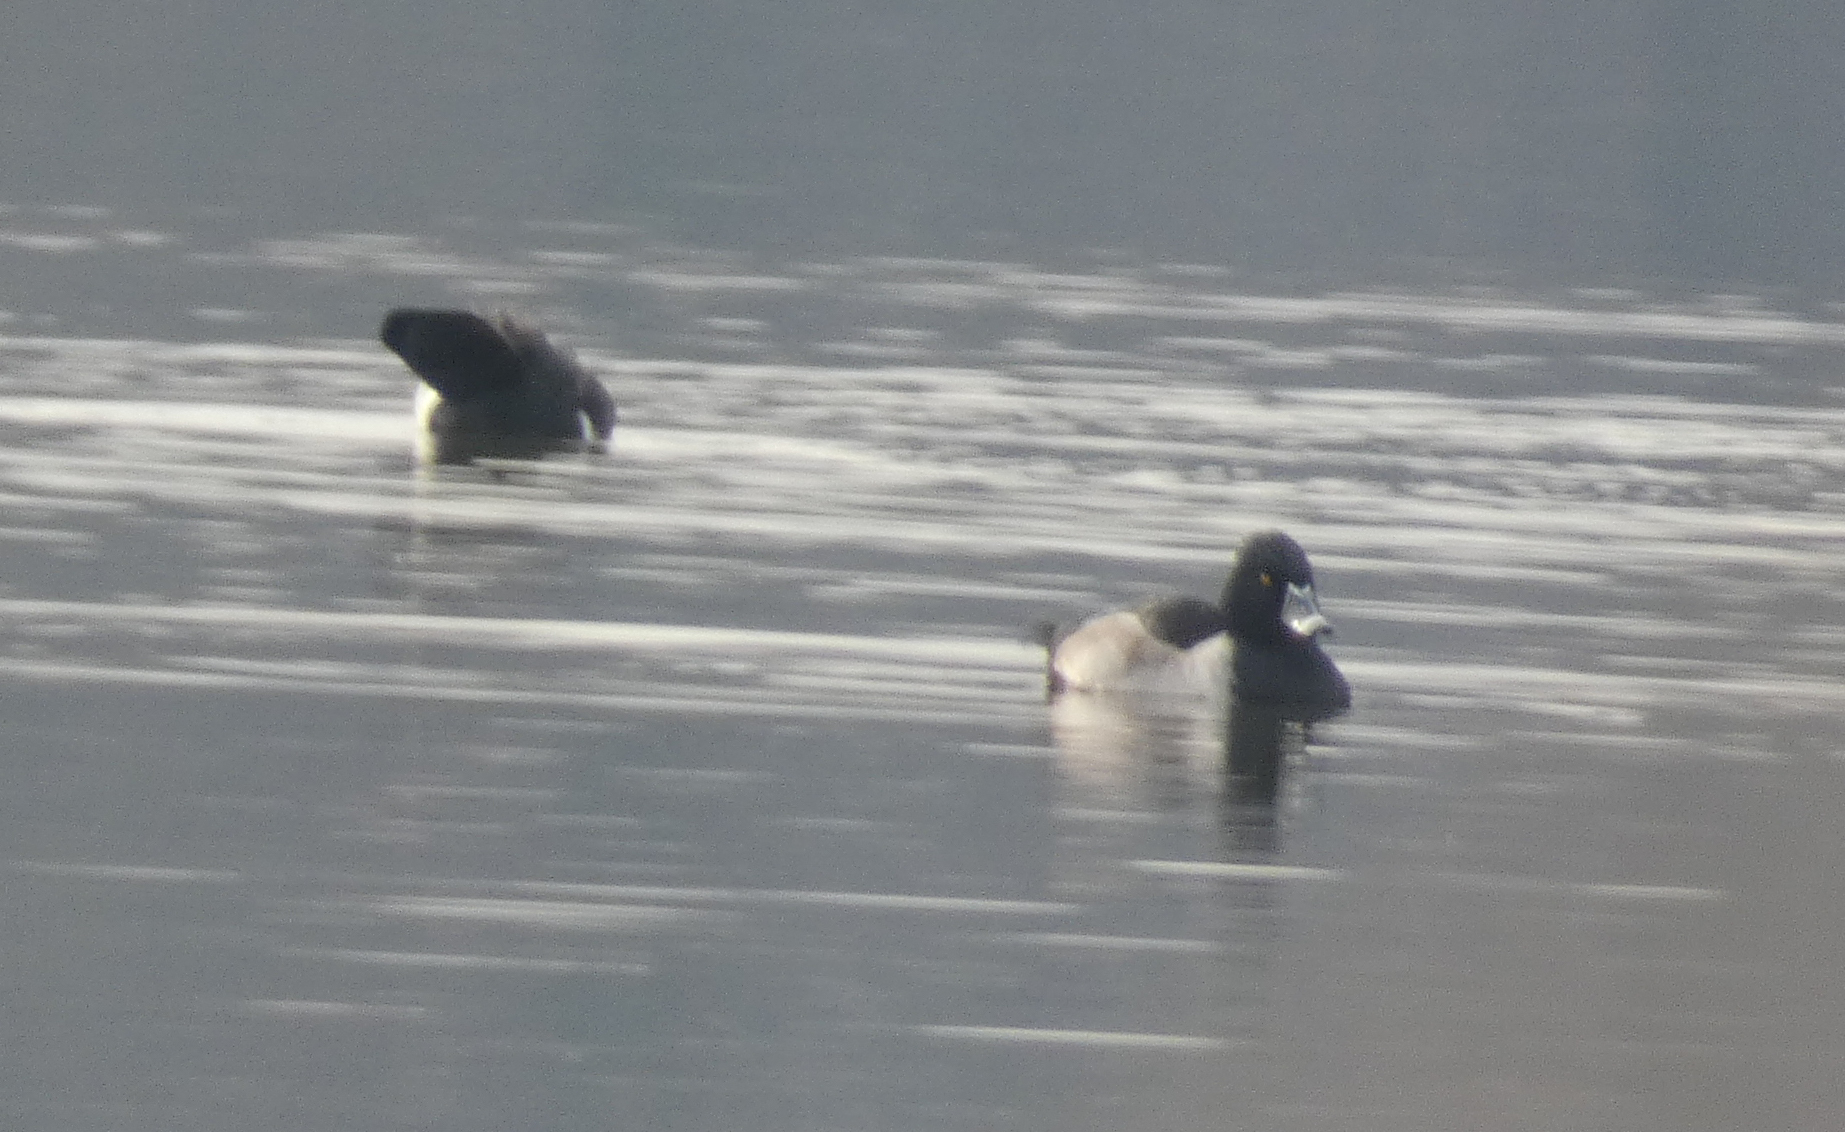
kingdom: Animalia
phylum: Chordata
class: Aves
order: Anseriformes
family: Anatidae
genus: Aythya
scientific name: Aythya collaris
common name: Ring-necked duck
